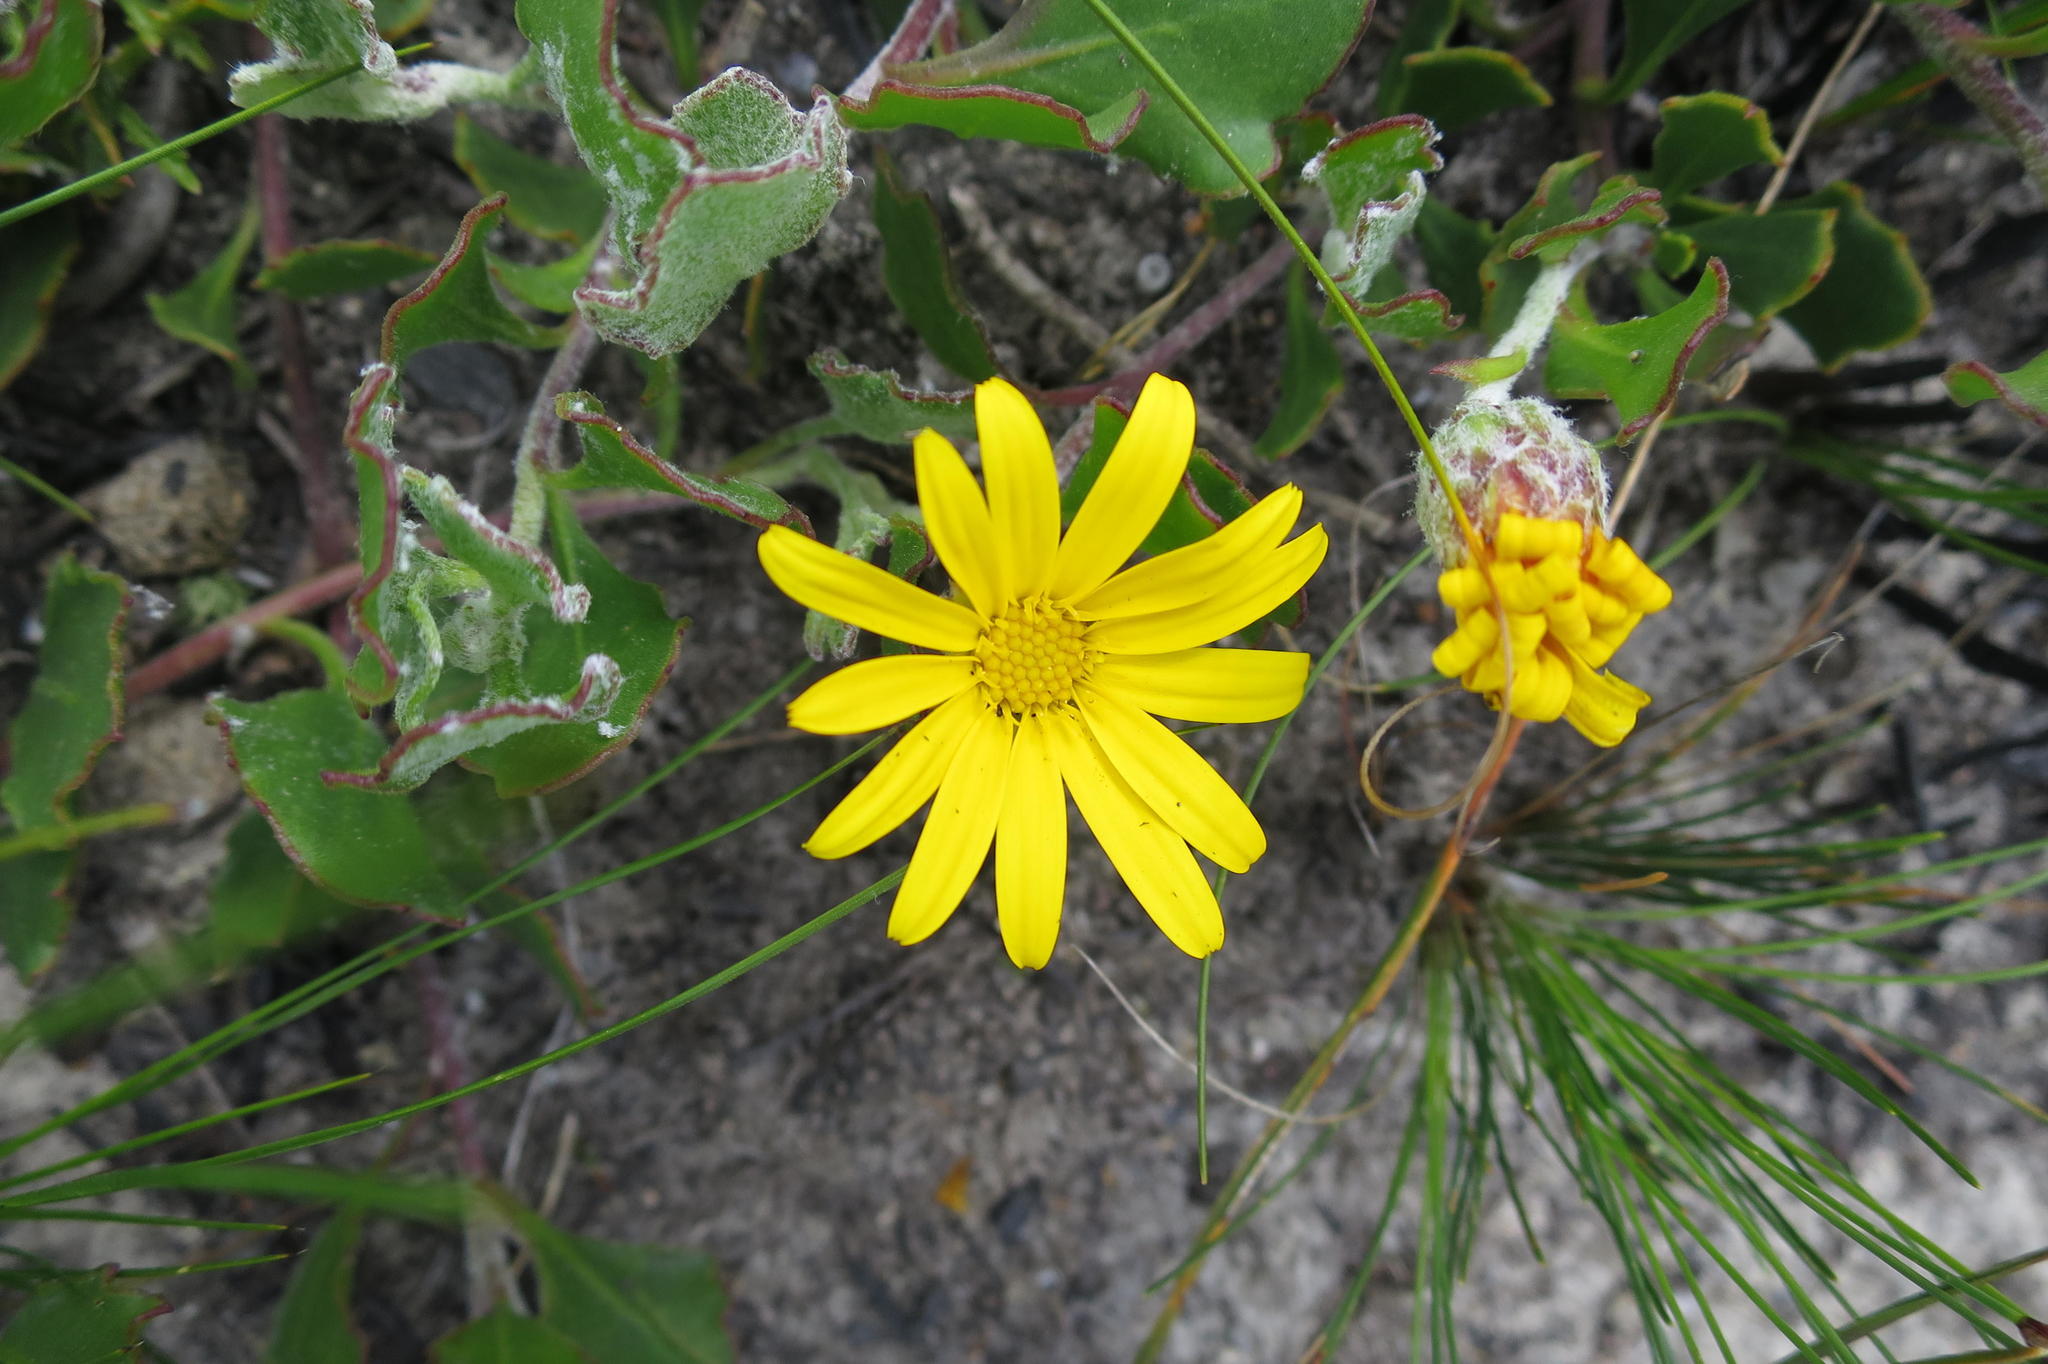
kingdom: Plantae
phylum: Tracheophyta
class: Magnoliopsida
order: Asterales
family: Asteraceae
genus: Osteospermum
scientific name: Osteospermum potbergense
